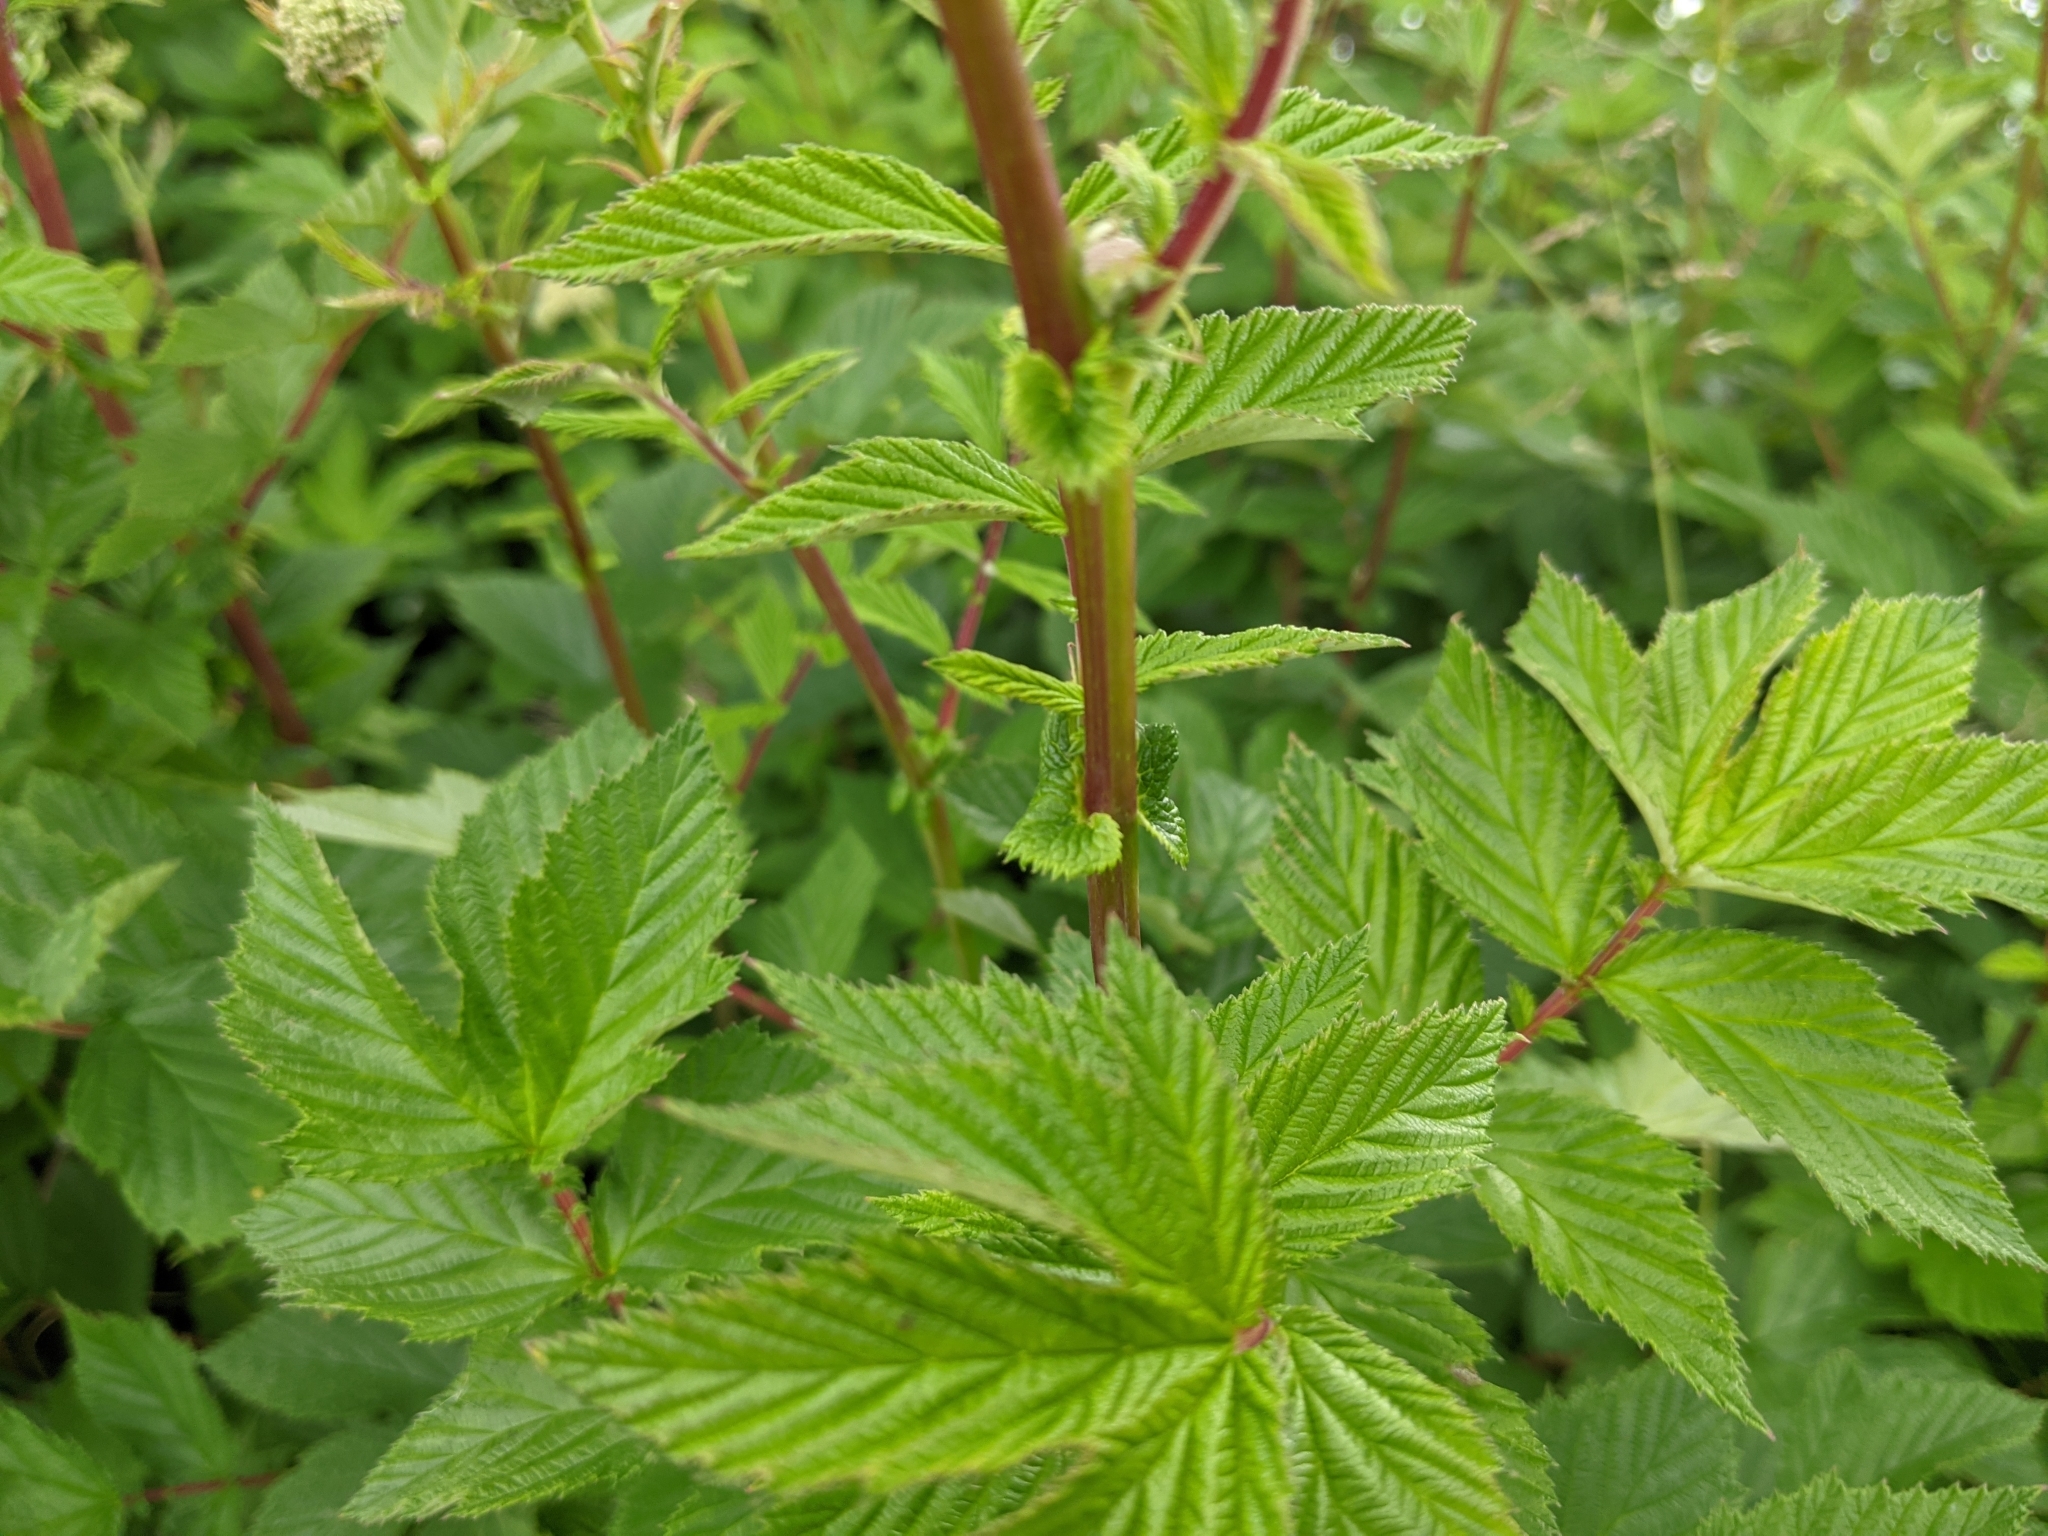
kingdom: Plantae
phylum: Tracheophyta
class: Magnoliopsida
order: Rosales
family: Rosaceae
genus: Filipendula
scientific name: Filipendula ulmaria
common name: Meadowsweet
